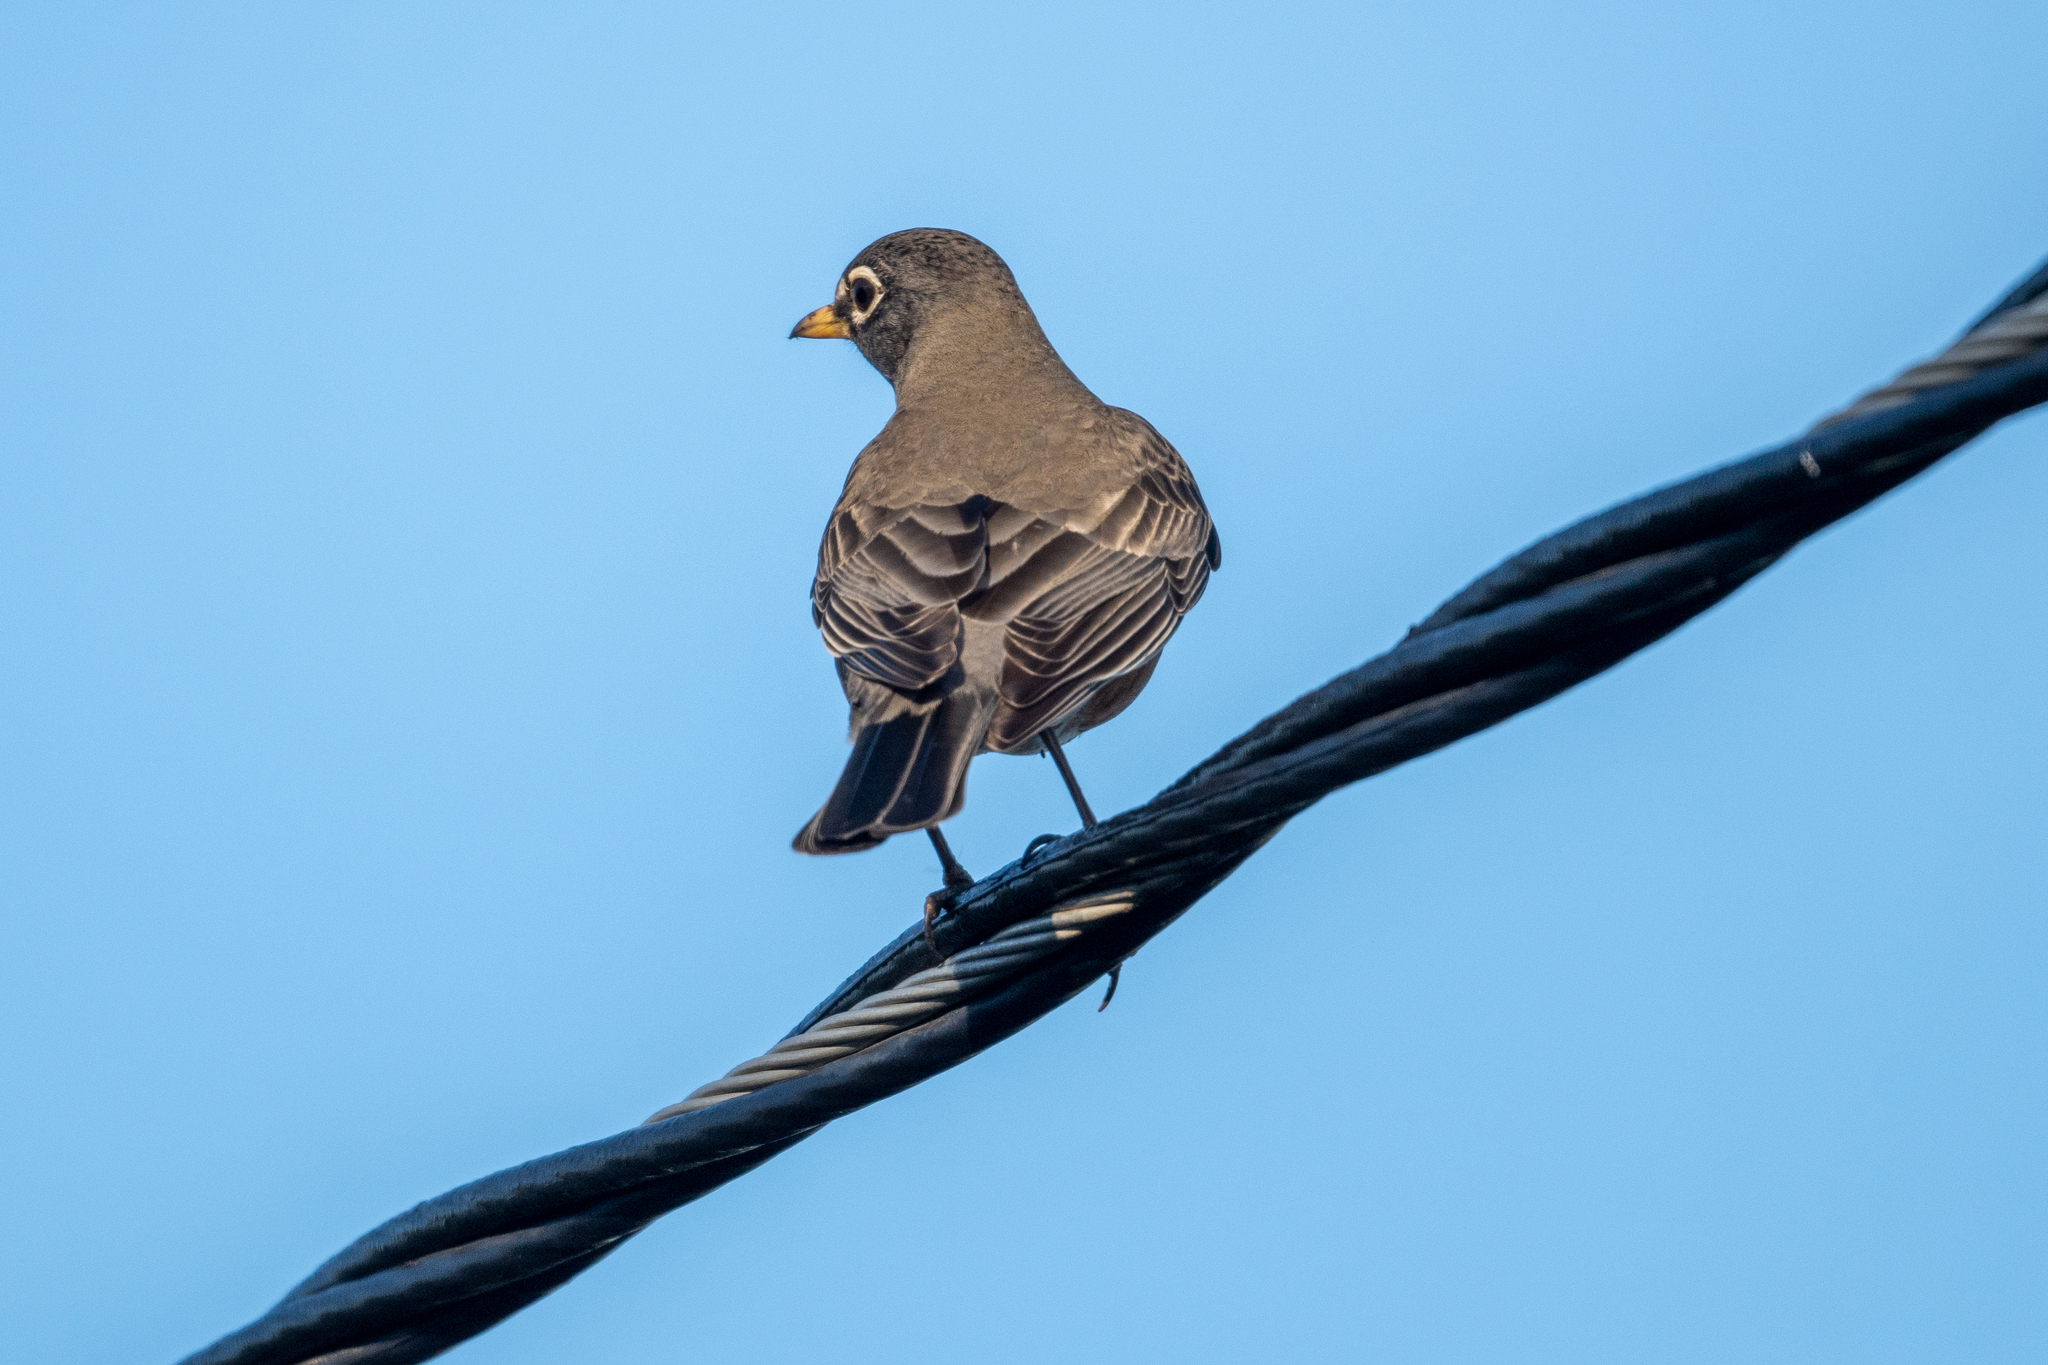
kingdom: Animalia
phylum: Chordata
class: Aves
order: Passeriformes
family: Turdidae
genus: Turdus
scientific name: Turdus migratorius
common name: American robin
